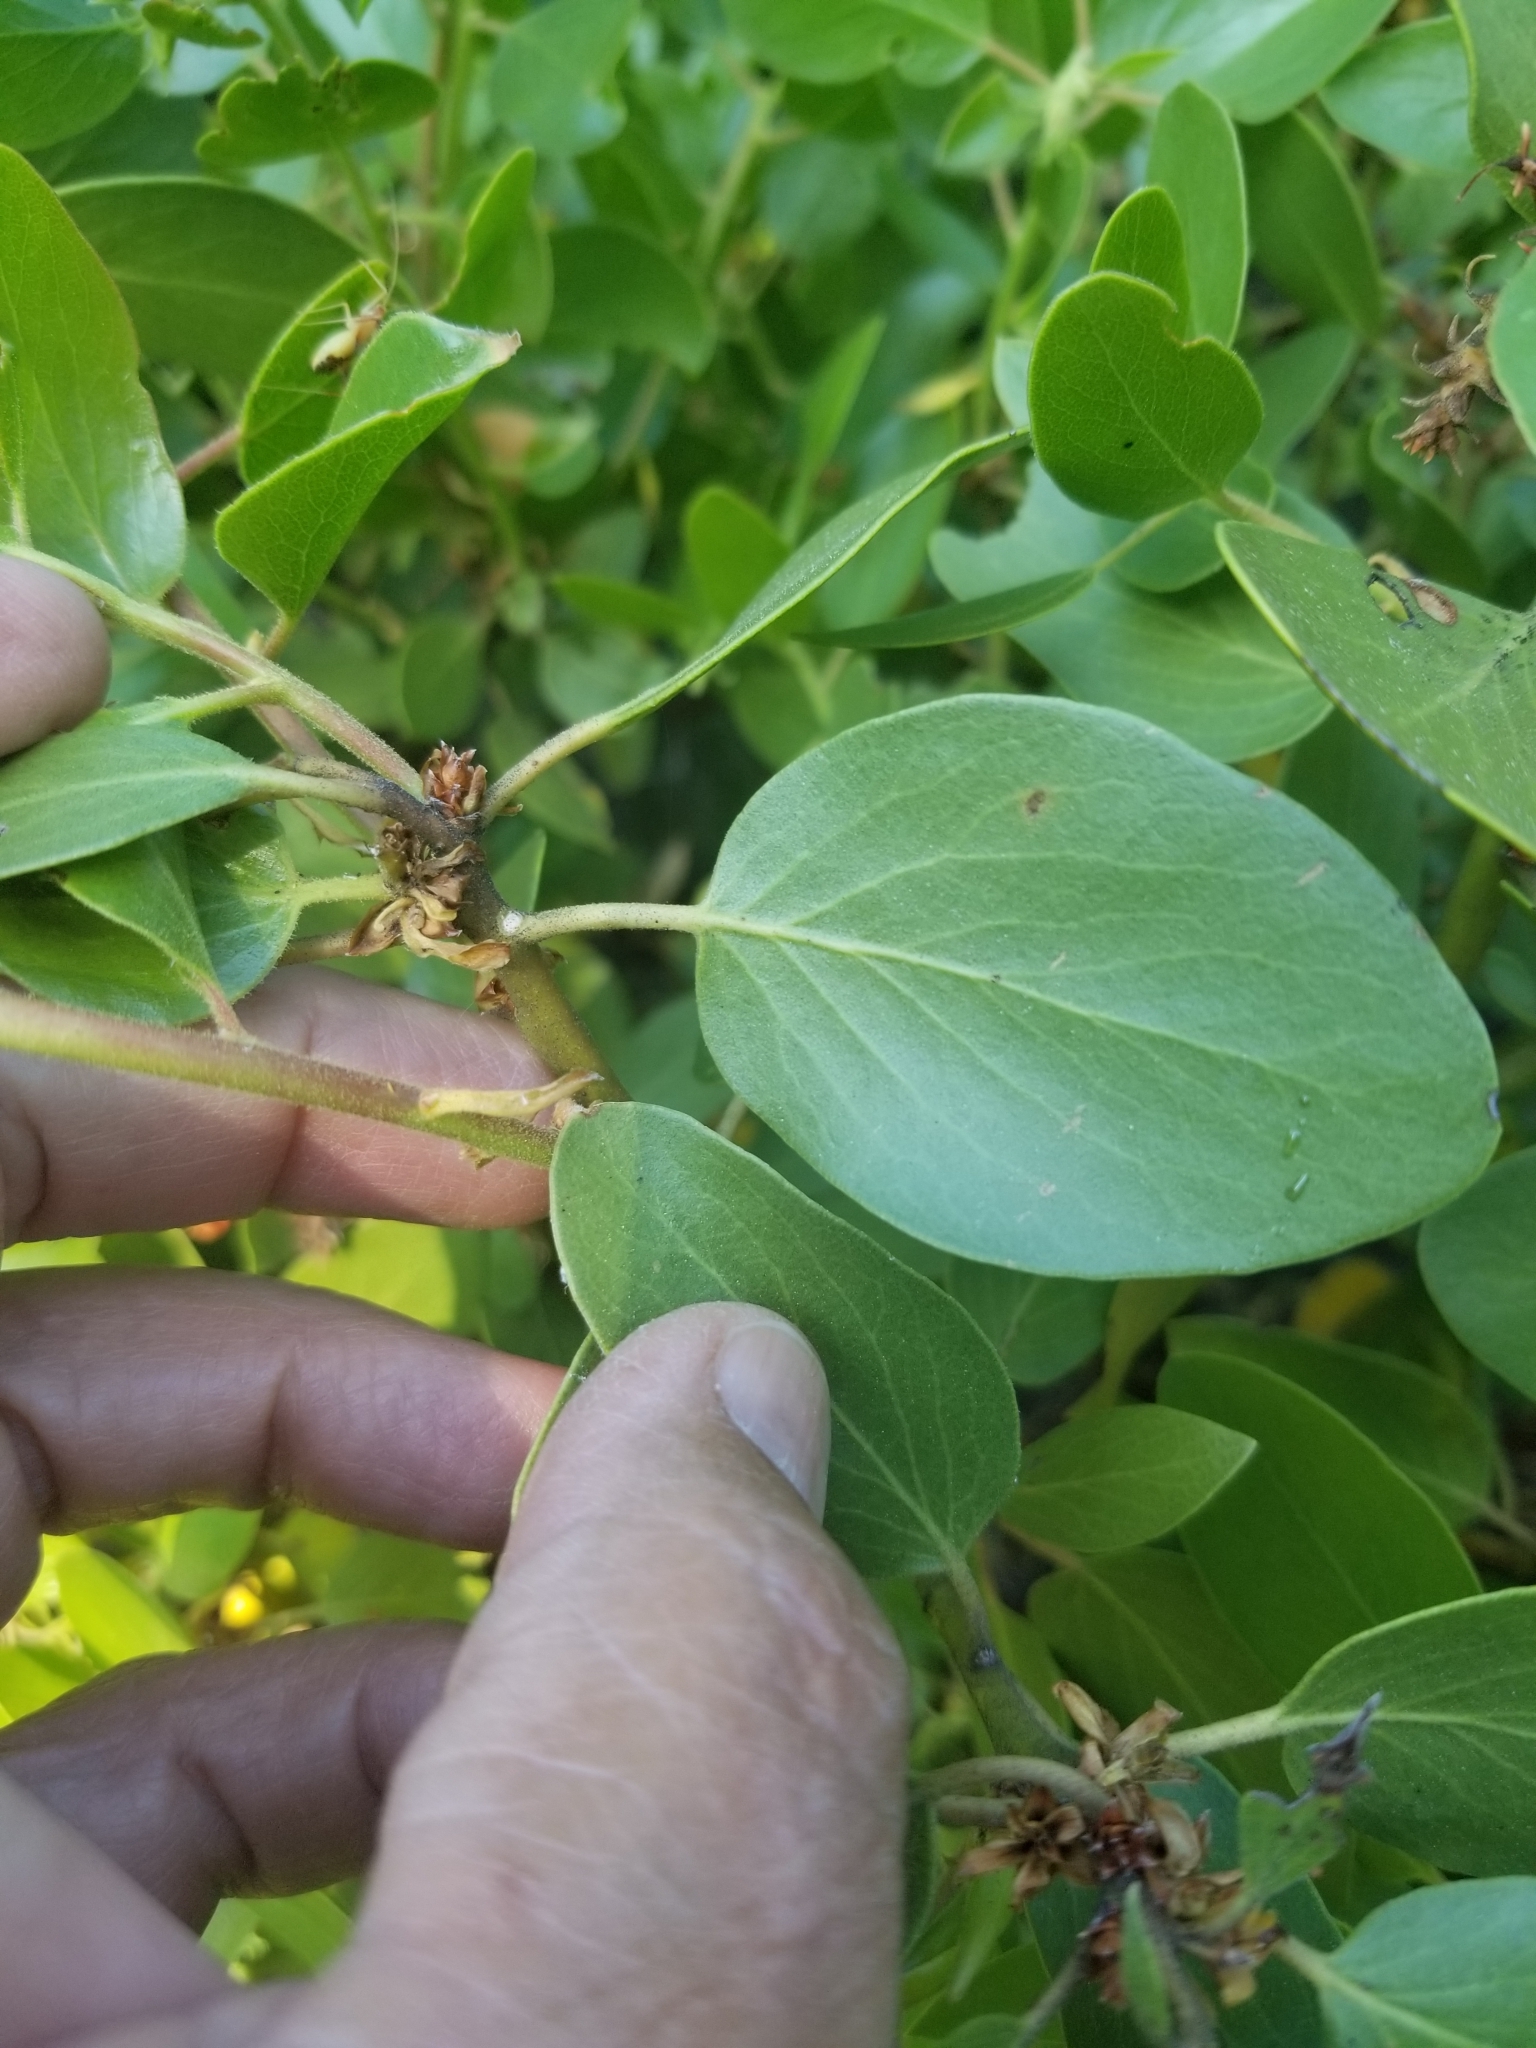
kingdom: Plantae
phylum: Tracheophyta
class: Magnoliopsida
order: Ericales
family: Ericaceae
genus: Arctostaphylos
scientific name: Arctostaphylos patula
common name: Green-leaf manzanita
